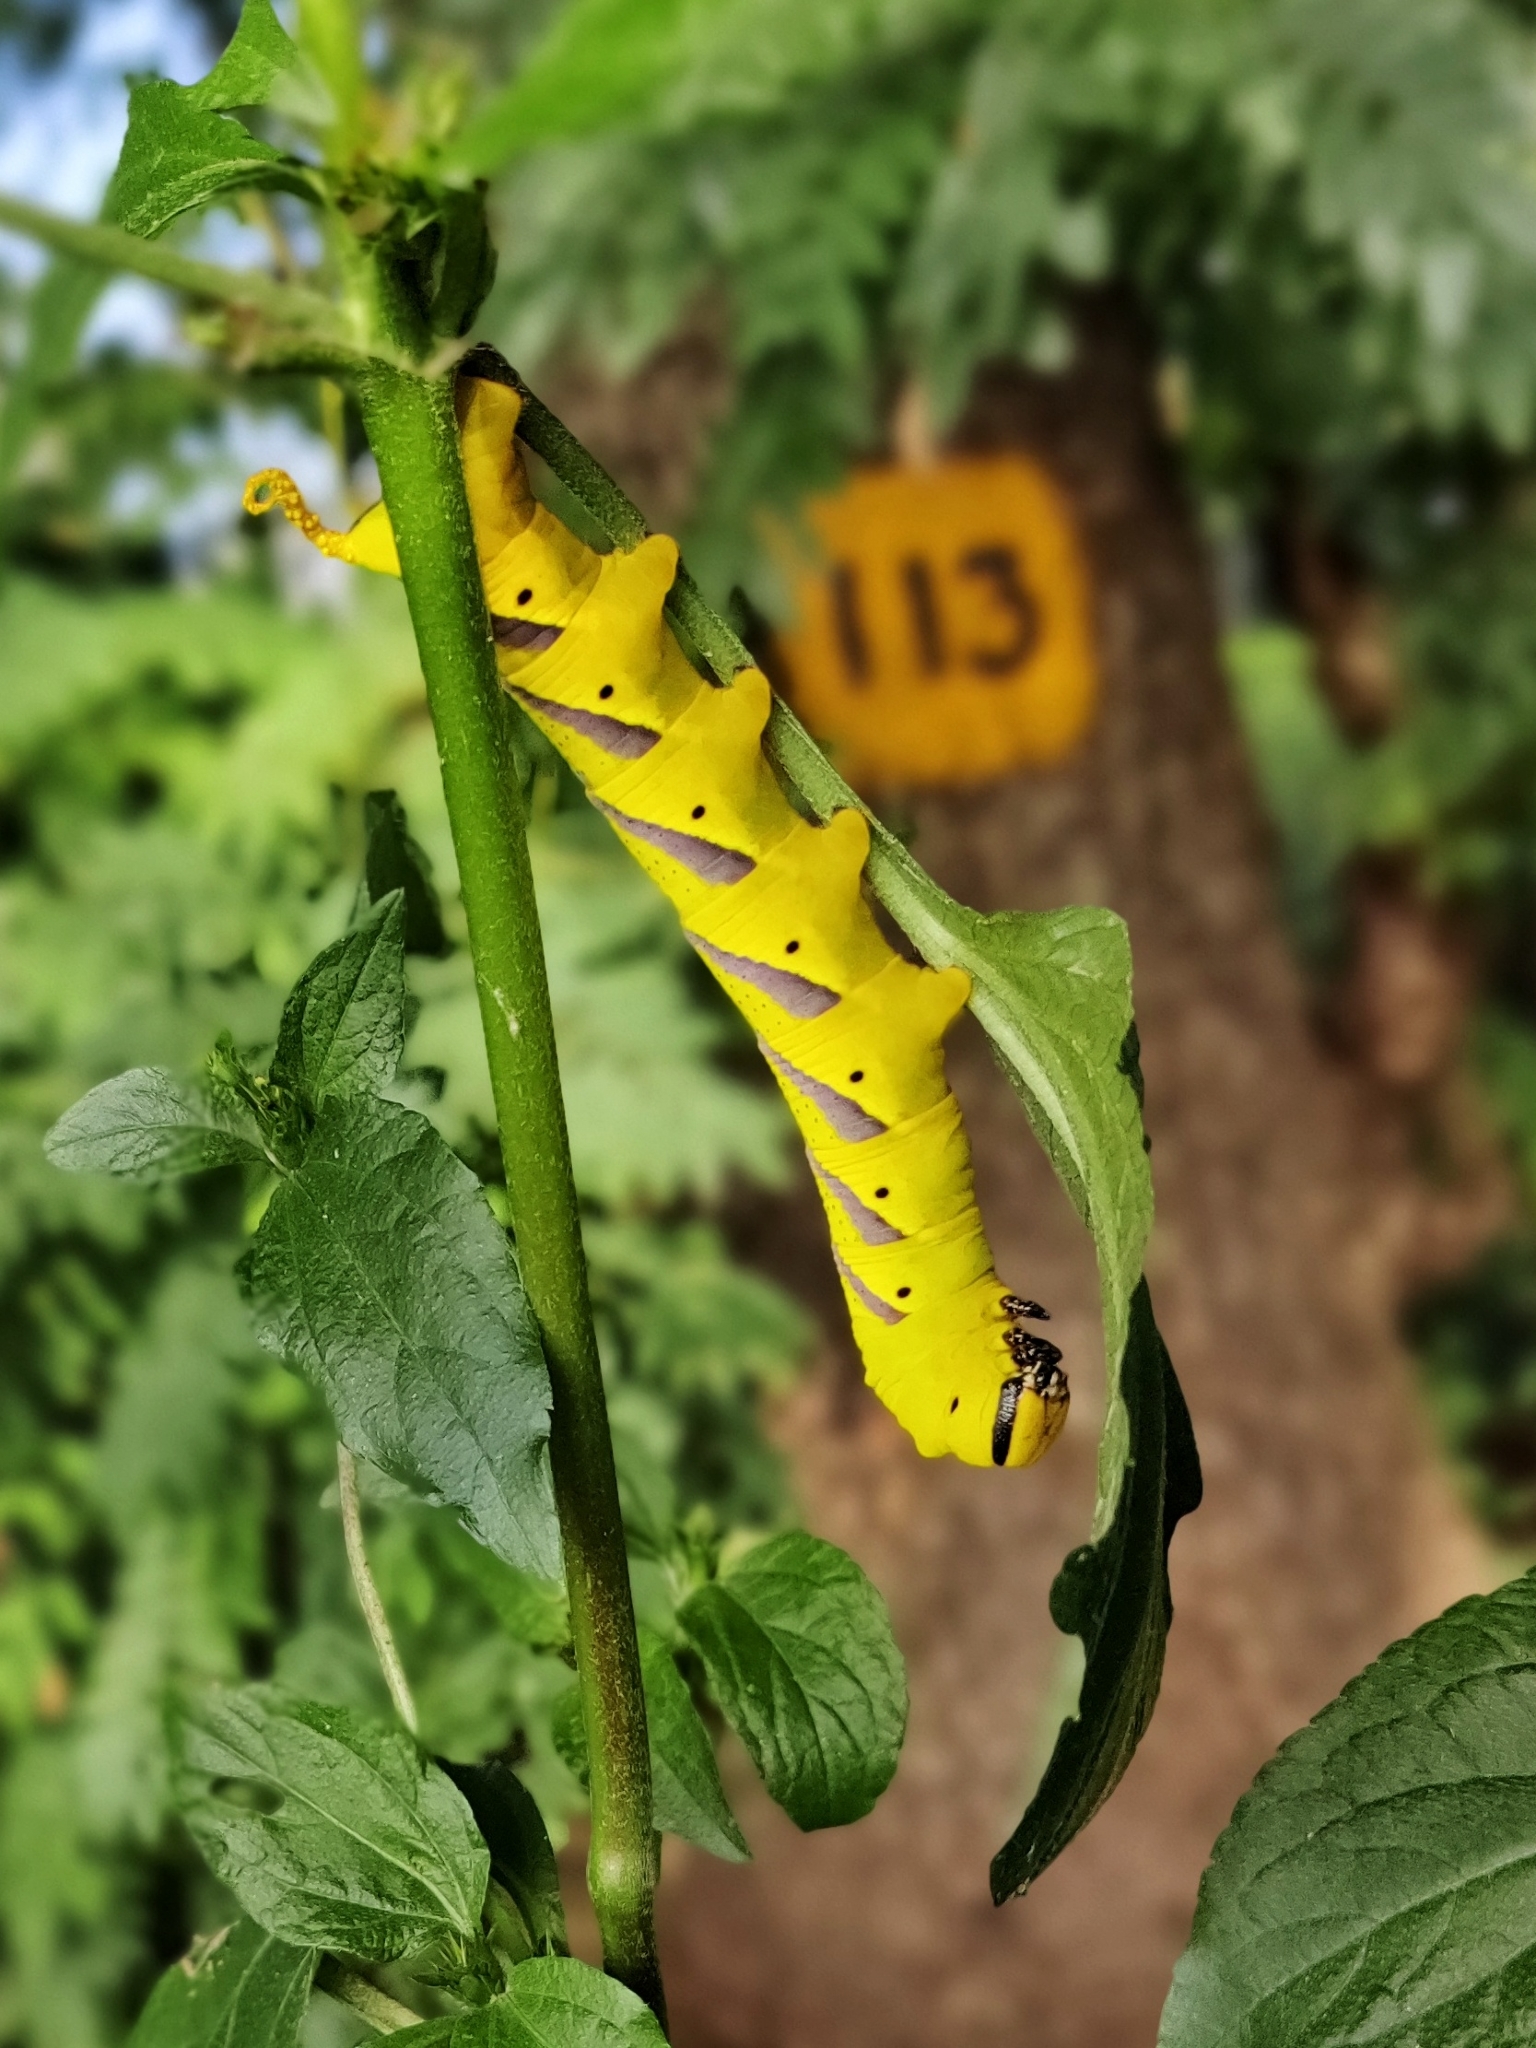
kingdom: Animalia
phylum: Arthropoda
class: Insecta
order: Lepidoptera
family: Sphingidae
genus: Acherontia
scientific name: Acherontia lachesis
